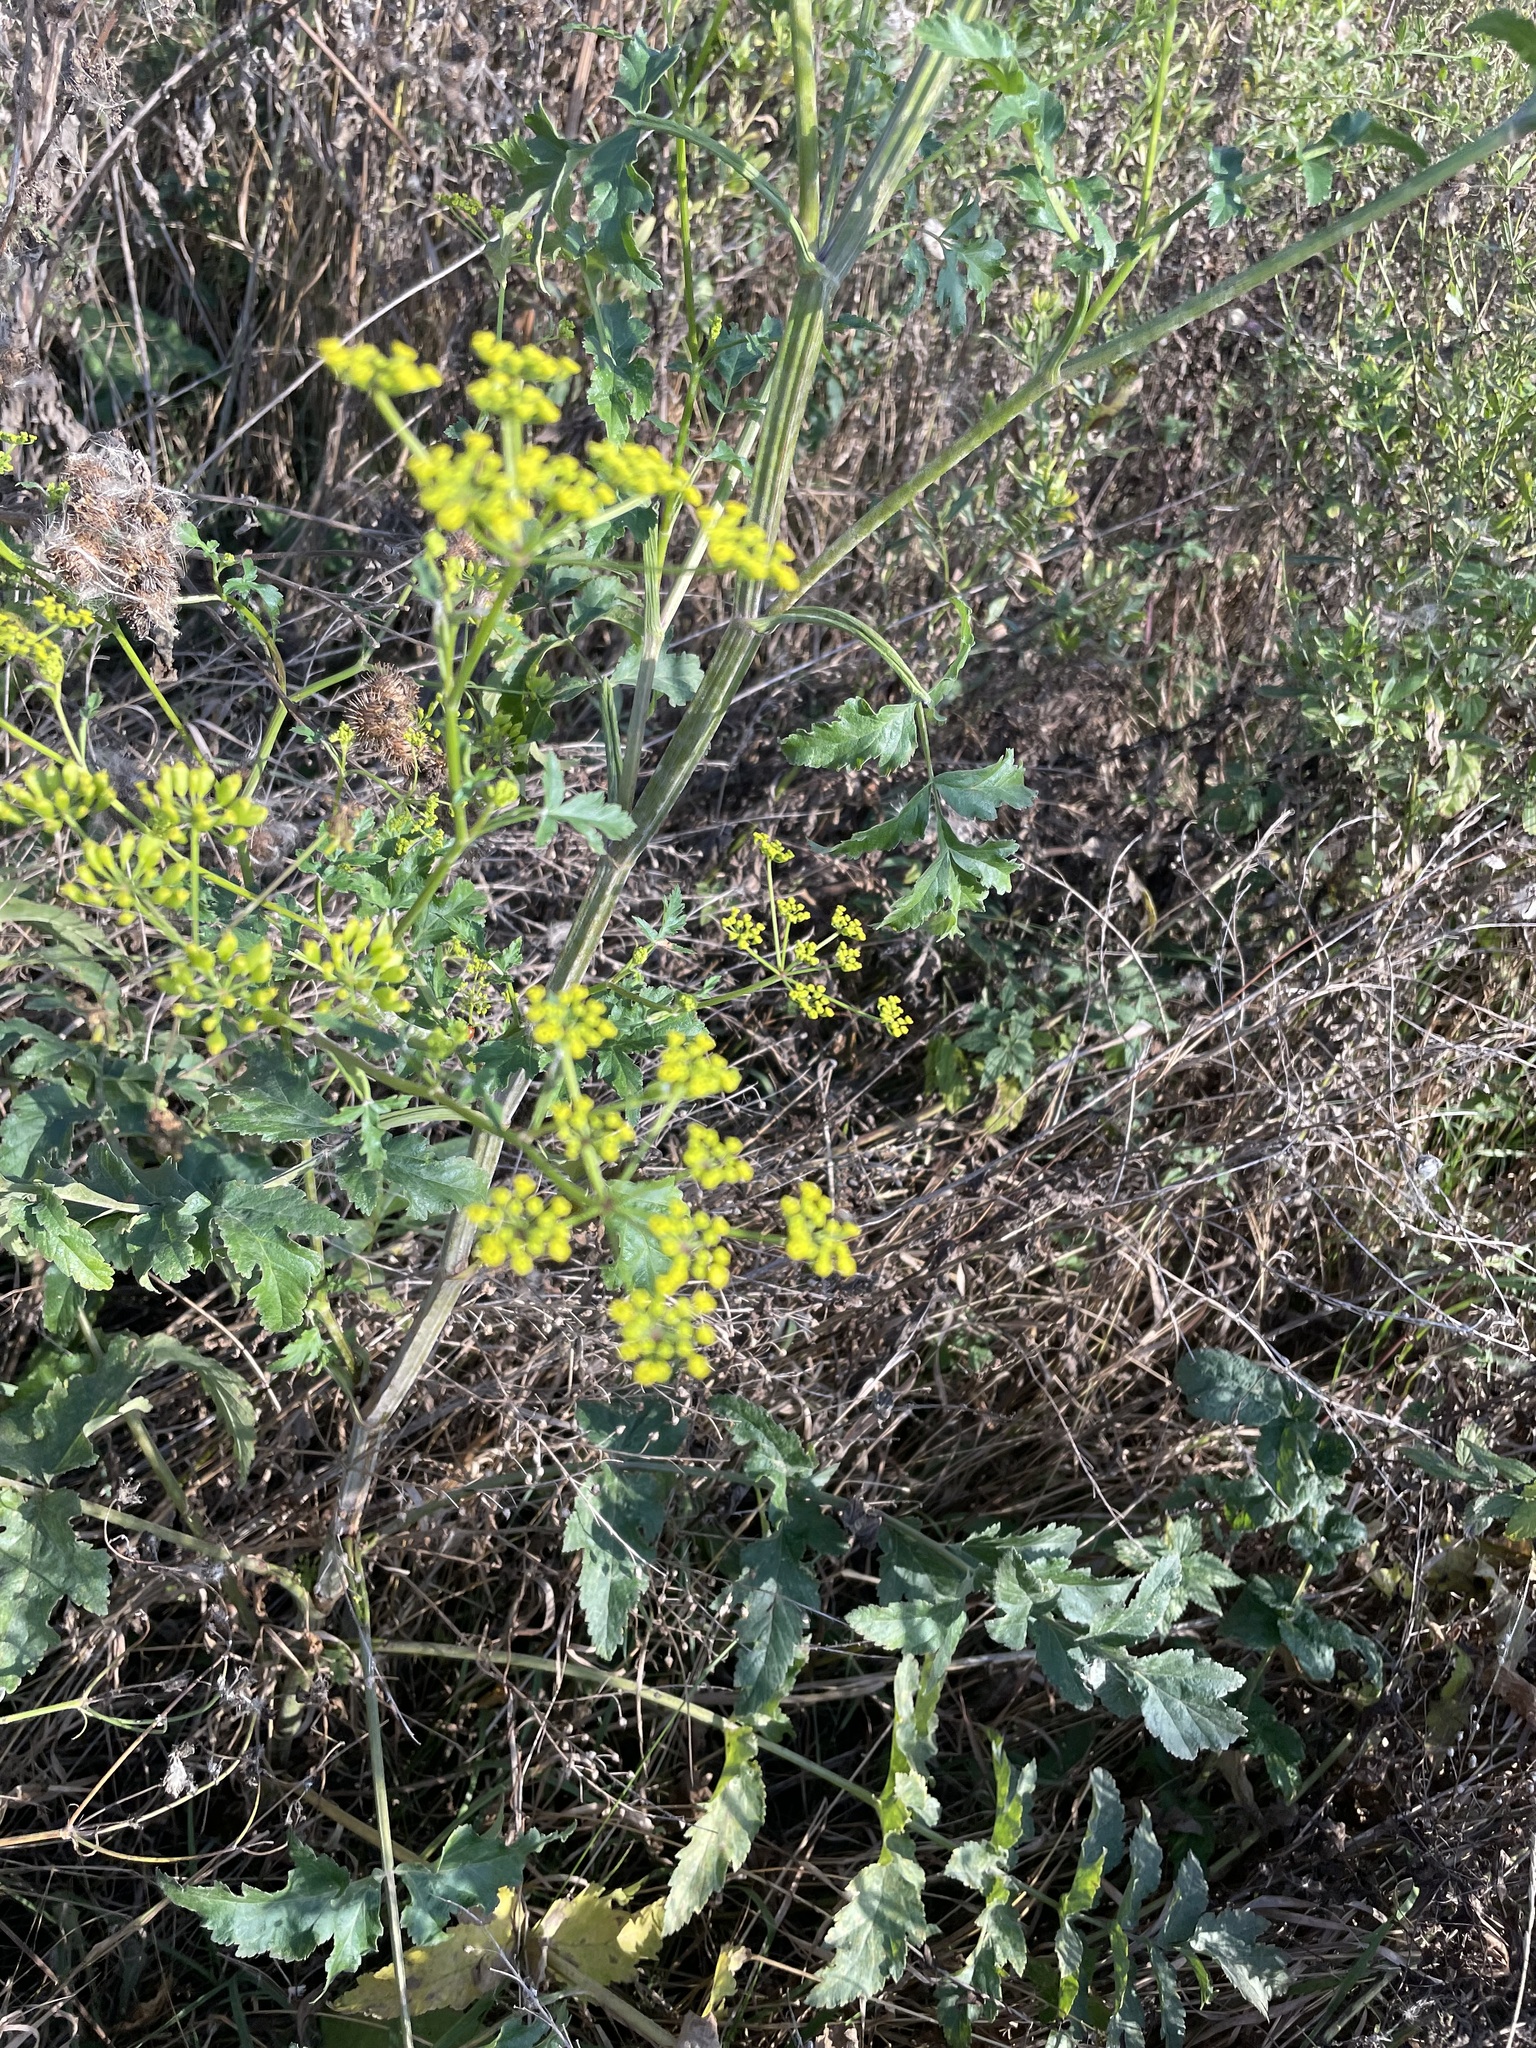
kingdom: Plantae
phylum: Tracheophyta
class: Magnoliopsida
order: Apiales
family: Apiaceae
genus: Pastinaca
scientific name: Pastinaca sativa
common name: Wild parsnip
